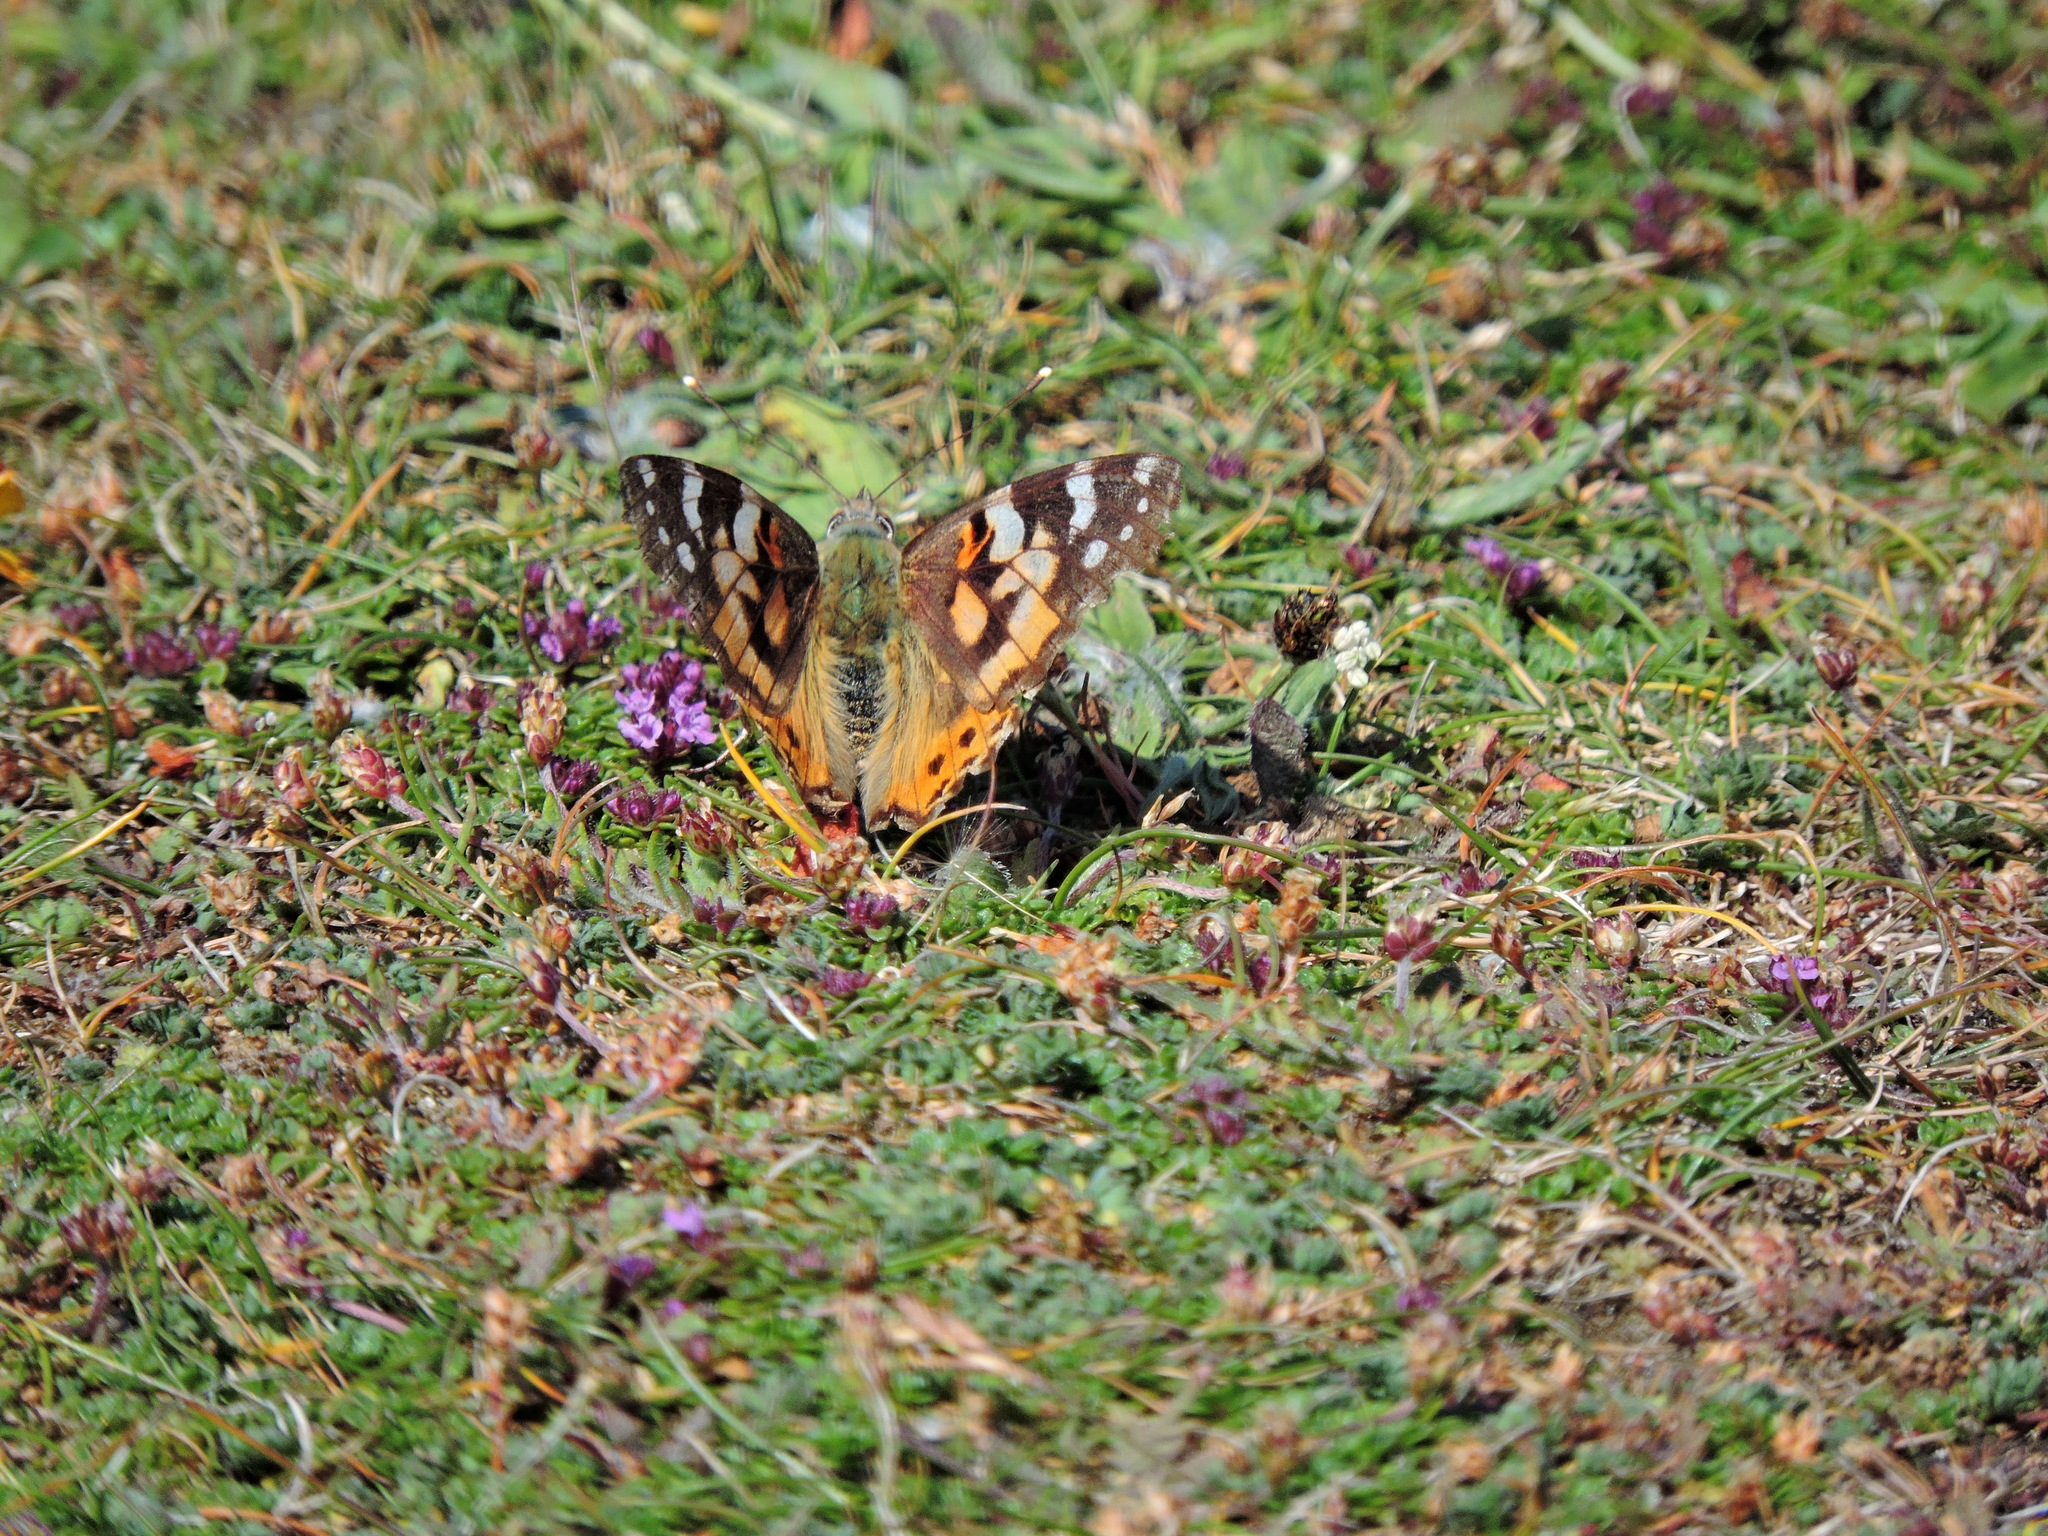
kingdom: Animalia
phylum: Arthropoda
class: Insecta
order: Lepidoptera
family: Nymphalidae
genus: Vanessa
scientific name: Vanessa cardui
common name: Painted lady
